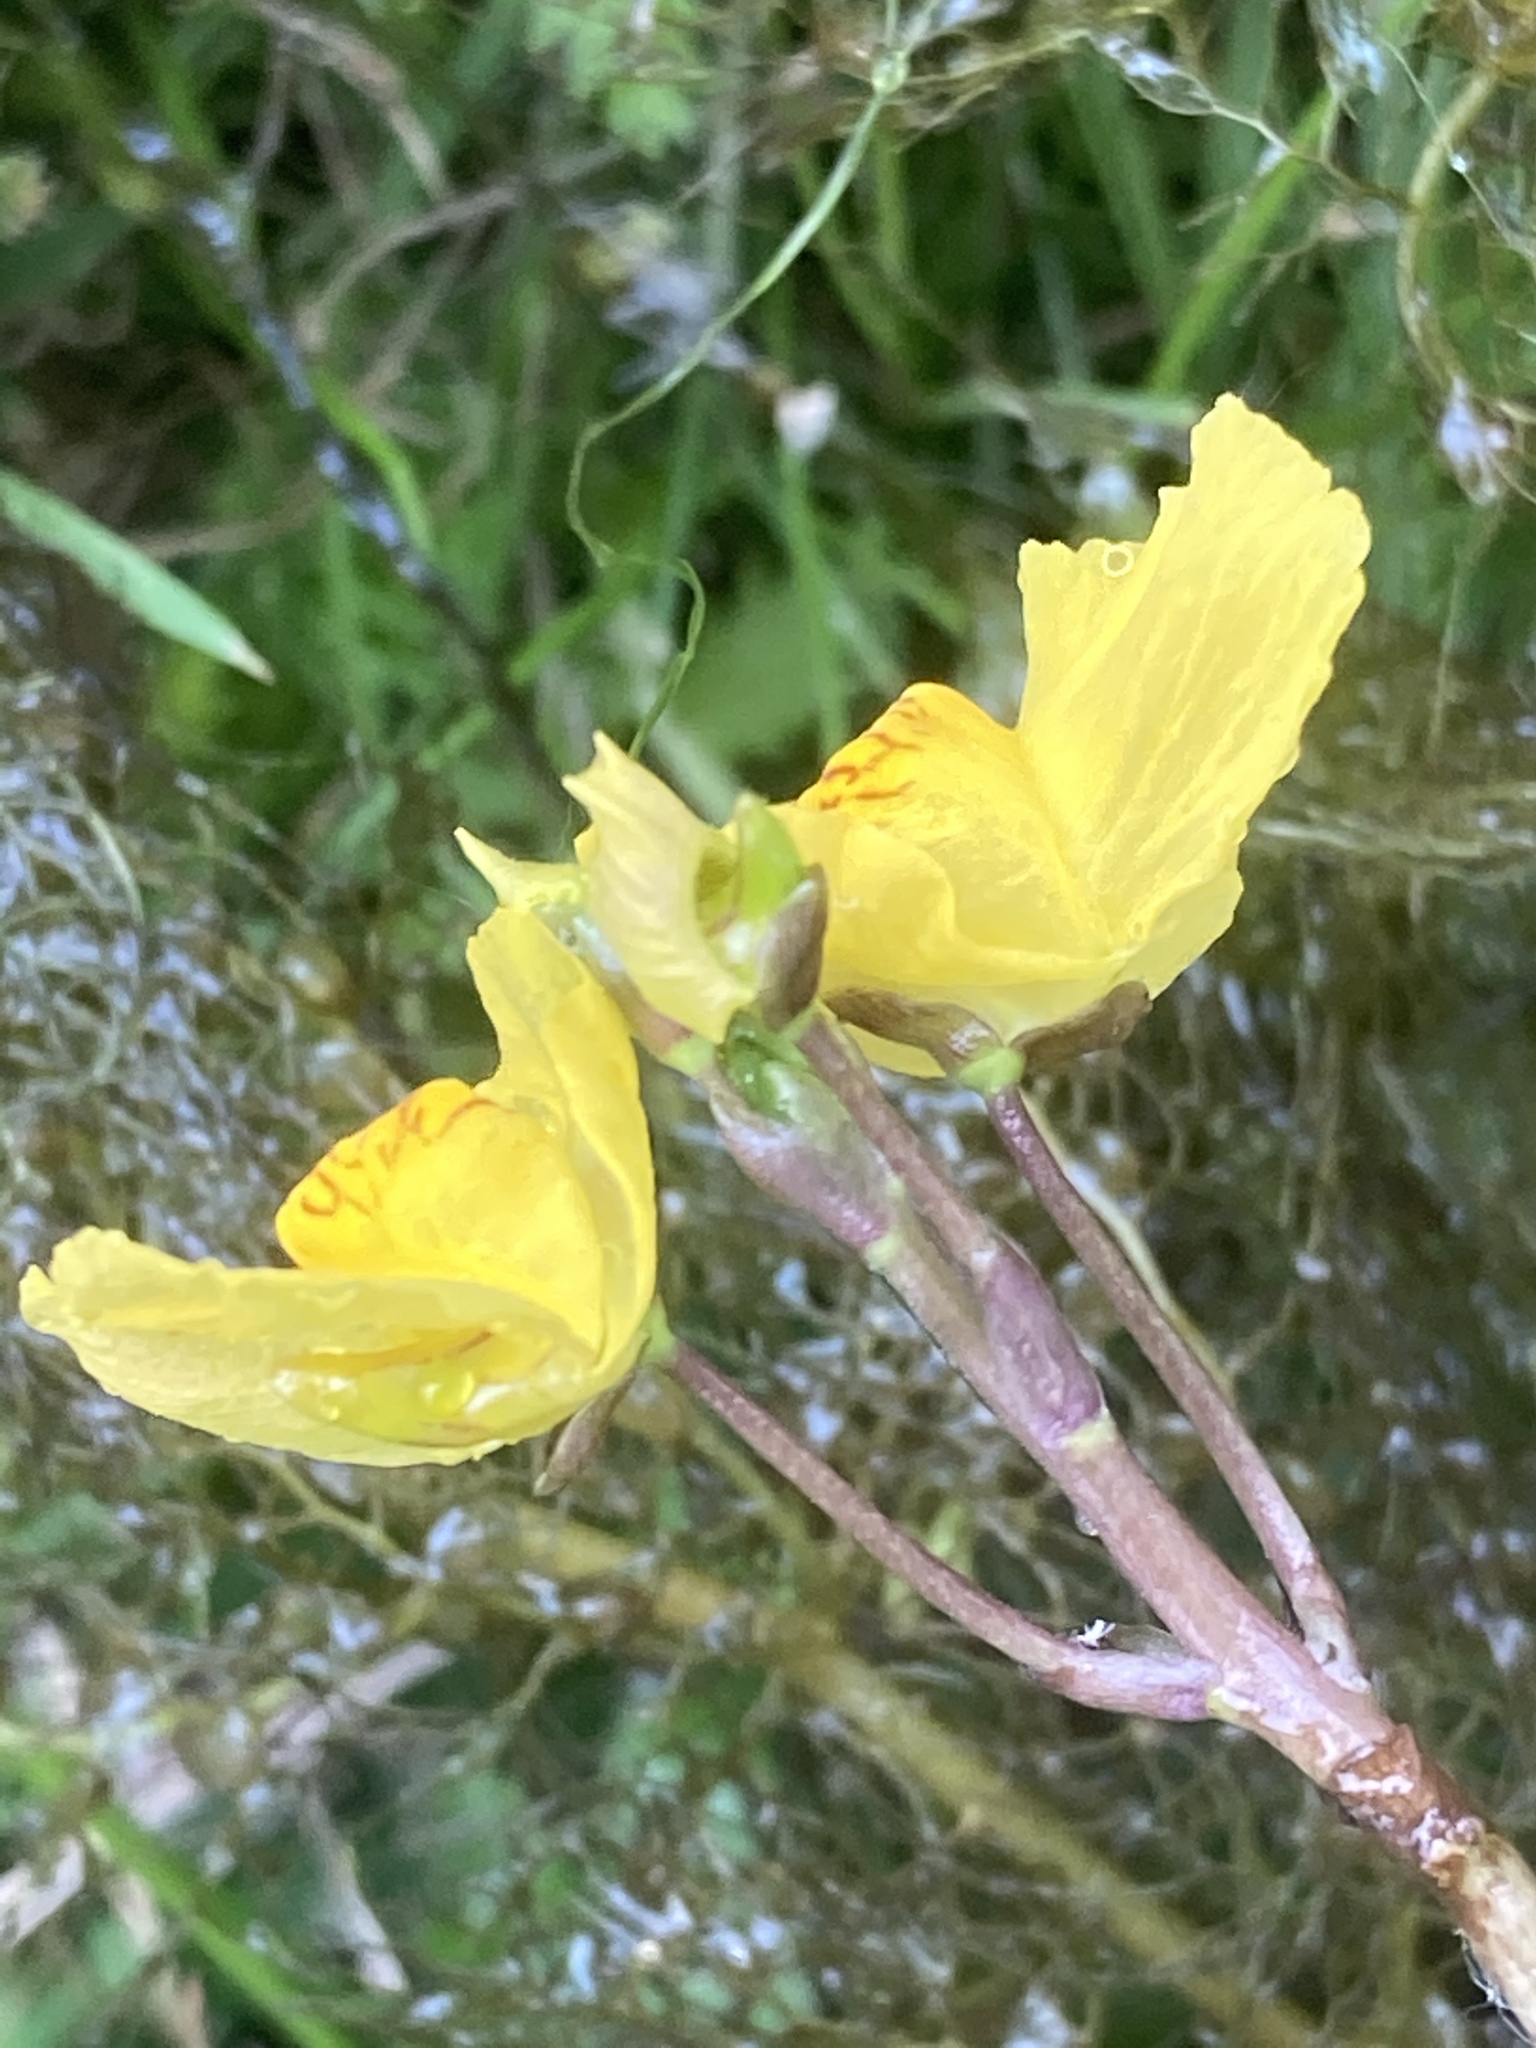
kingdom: Plantae
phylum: Tracheophyta
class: Magnoliopsida
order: Lamiales
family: Lentibulariaceae
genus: Utricularia
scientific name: Utricularia australis
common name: Bladderwort
